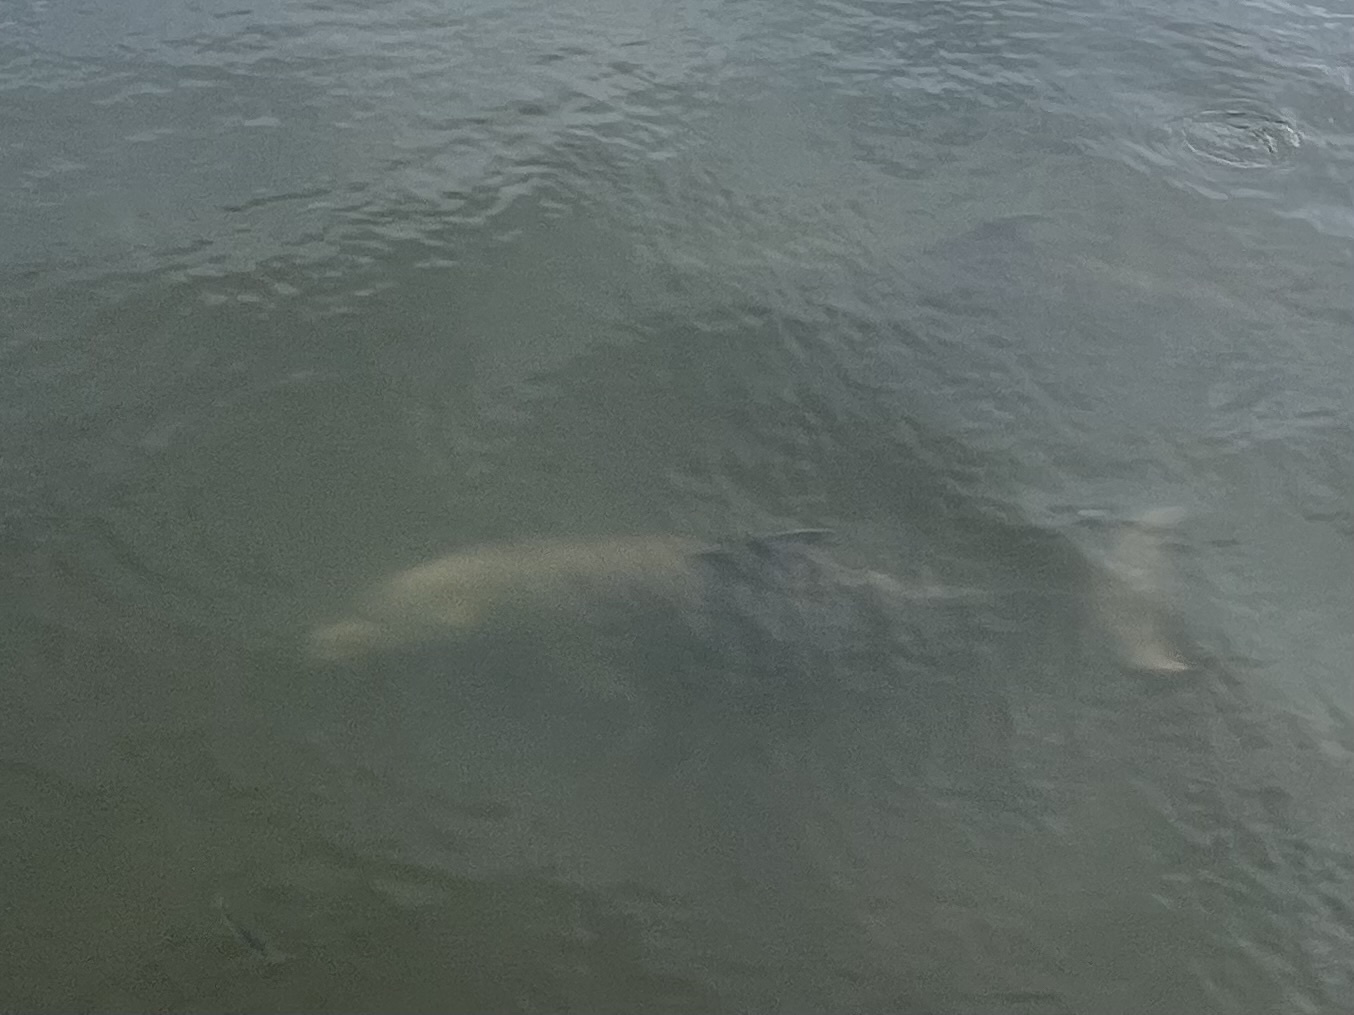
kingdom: Animalia
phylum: Chordata
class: Mammalia
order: Cetacea
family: Delphinidae
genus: Tursiops
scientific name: Tursiops truncatus
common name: Bottlenose dolphin
